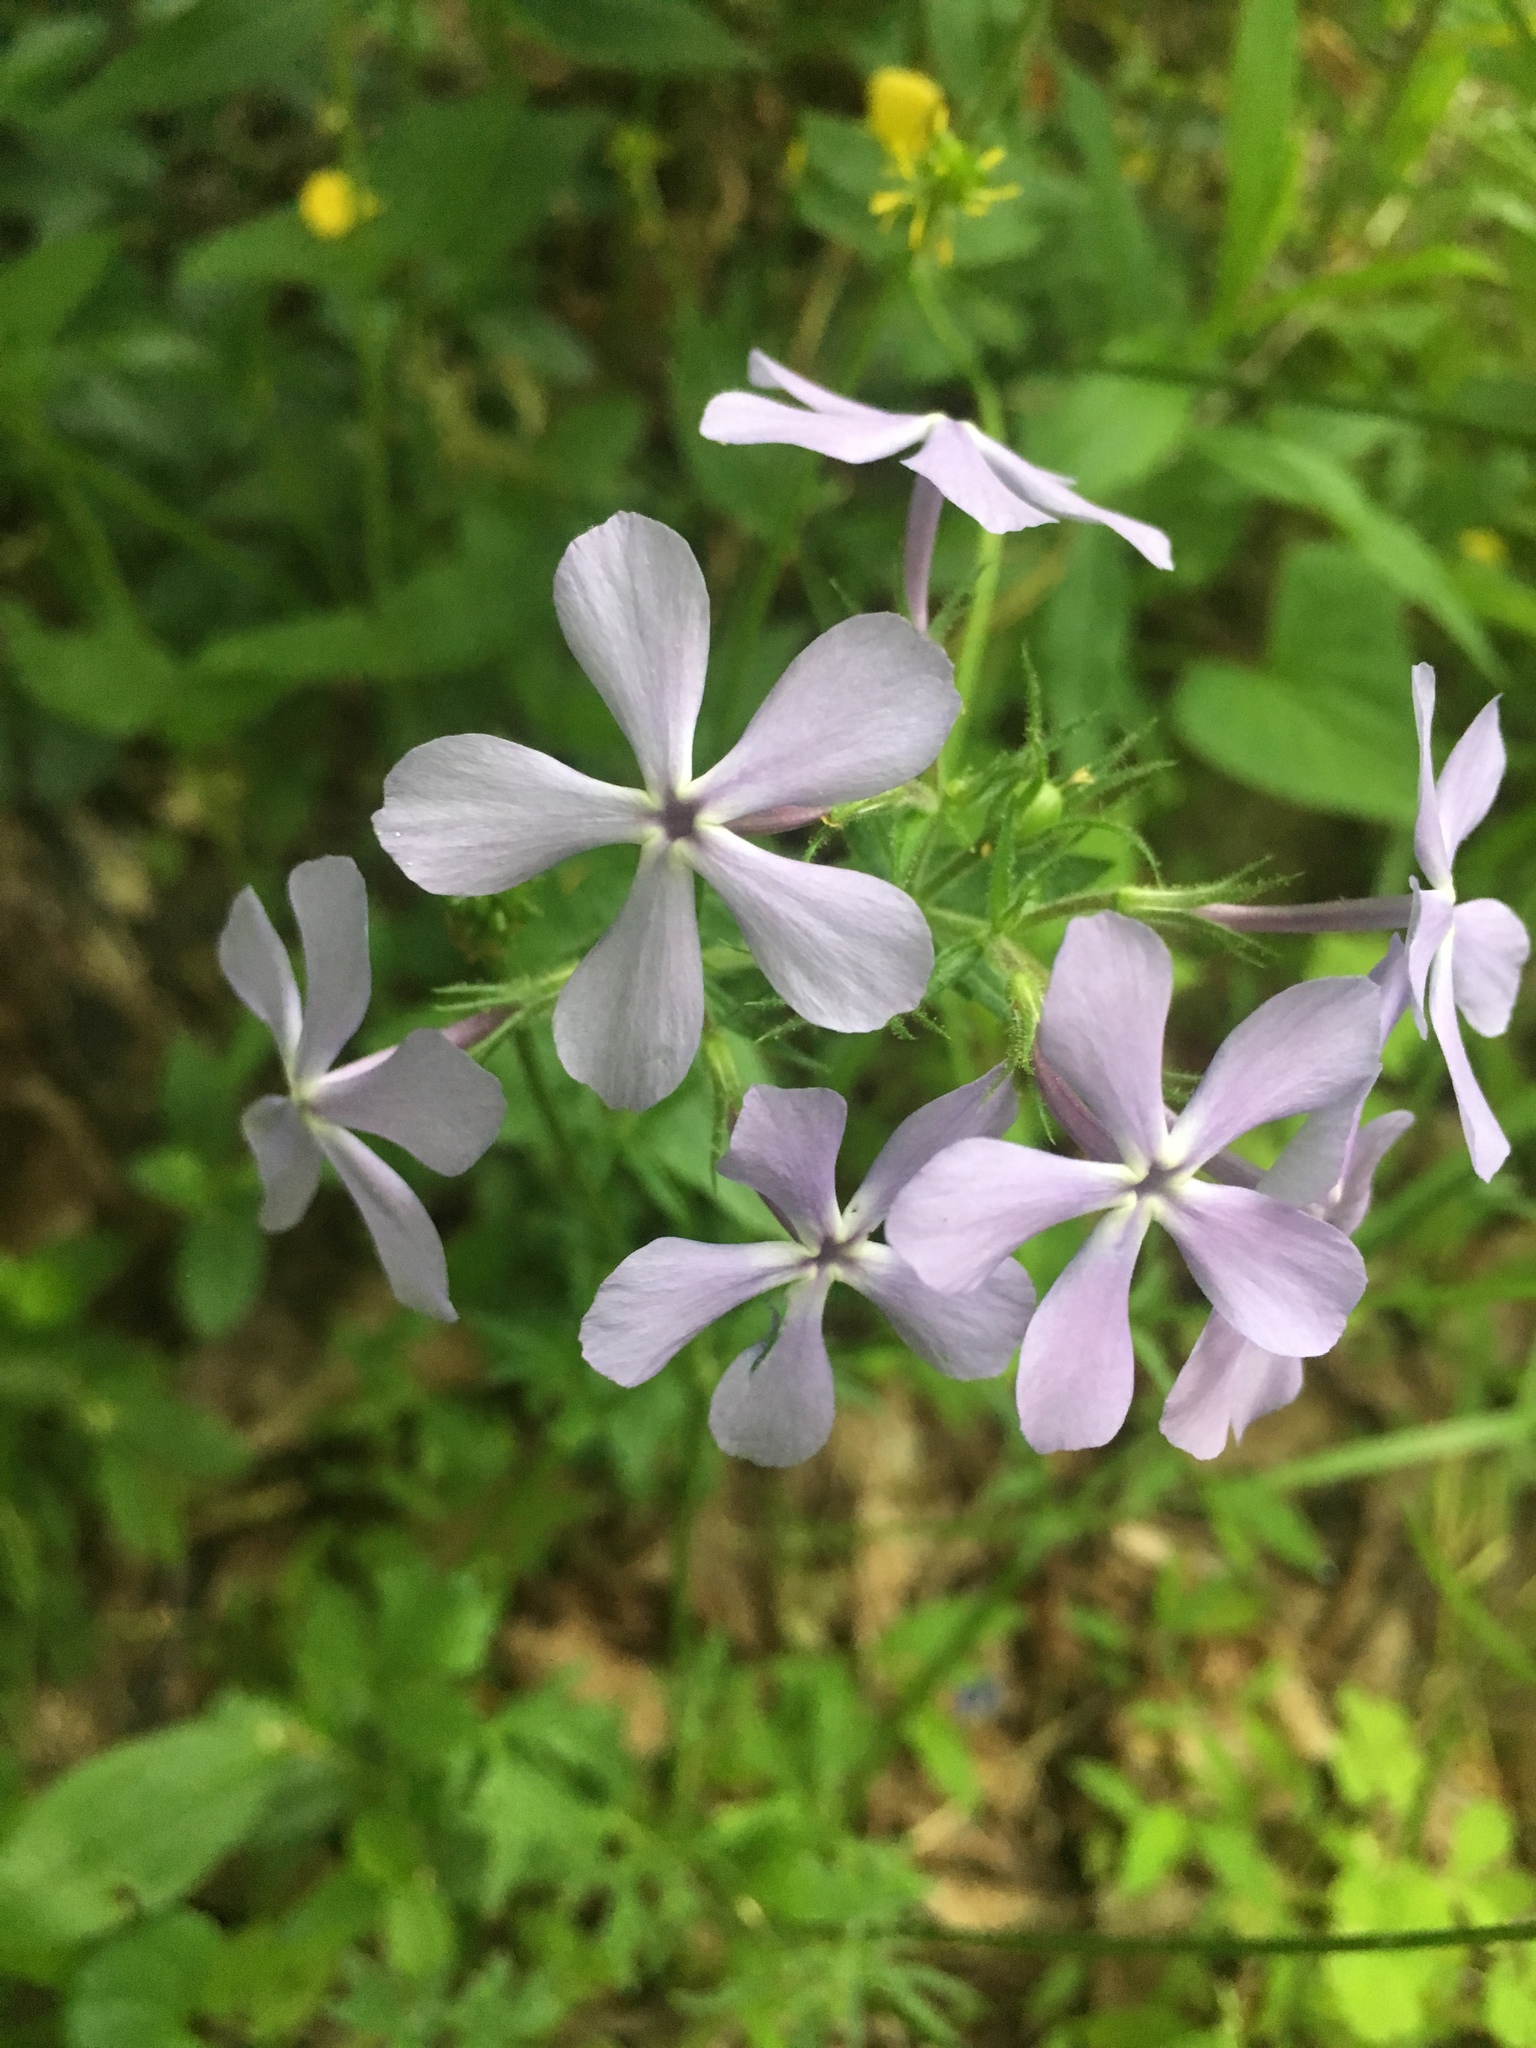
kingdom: Plantae
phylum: Tracheophyta
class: Magnoliopsida
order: Ericales
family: Polemoniaceae
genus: Phlox
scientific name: Phlox divaricata
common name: Blue phlox
